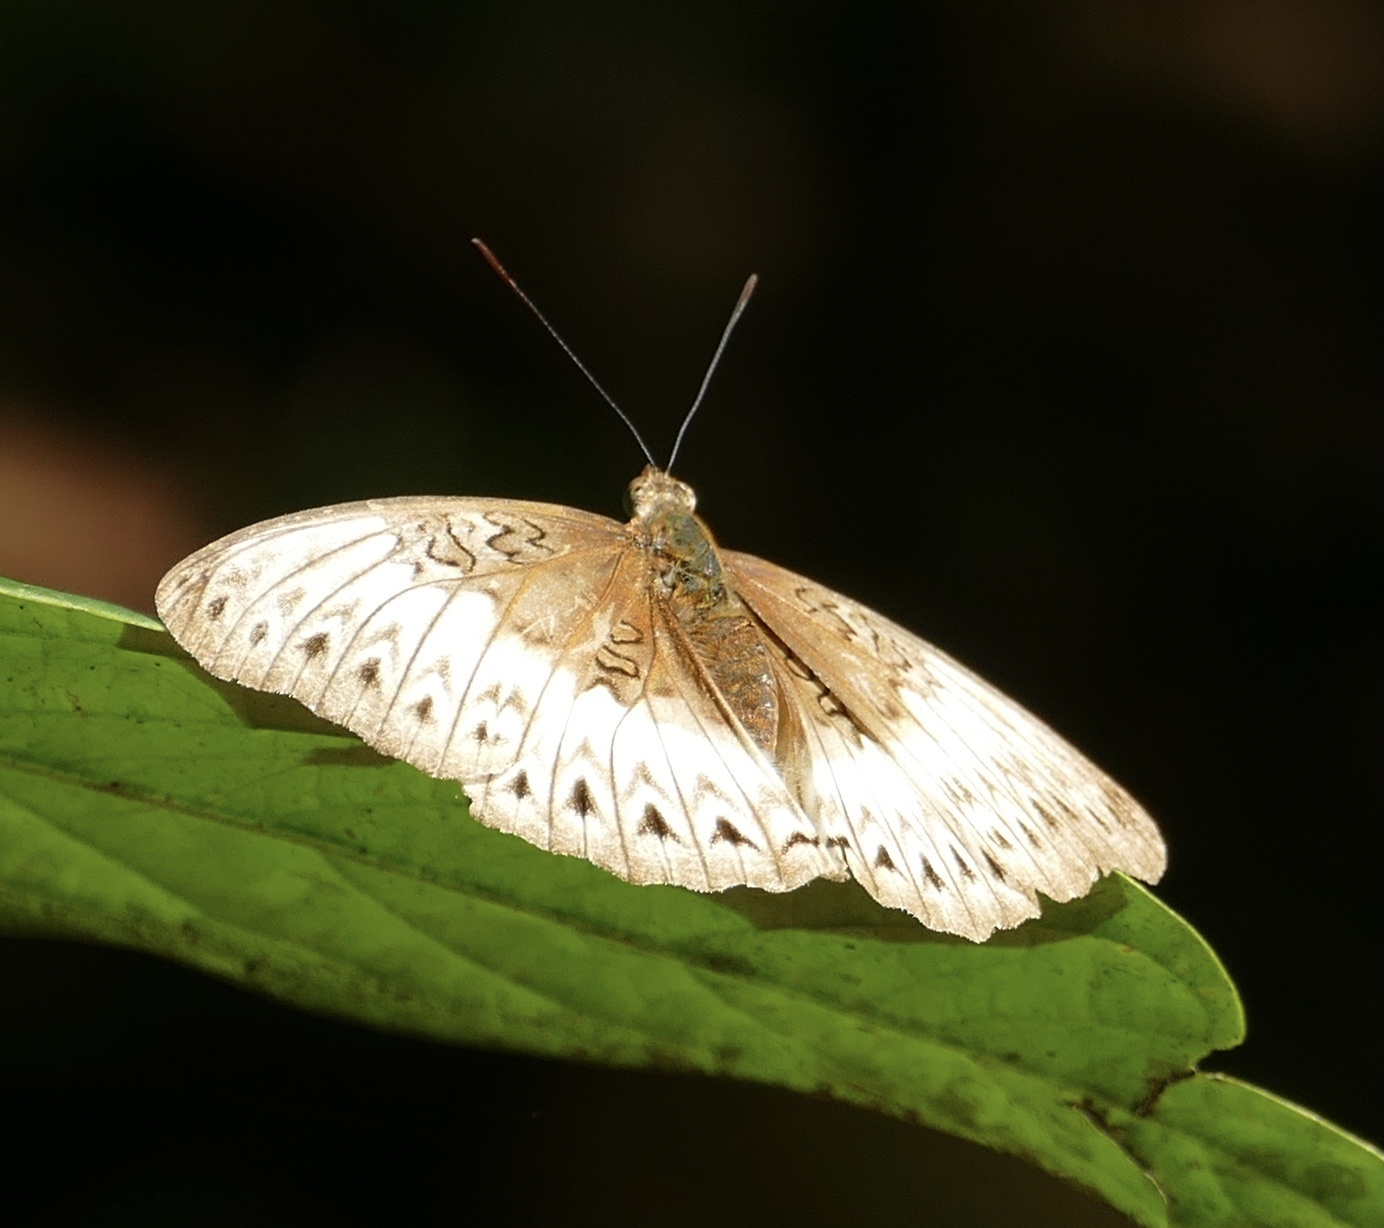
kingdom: Animalia
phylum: Arthropoda
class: Insecta
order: Lepidoptera
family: Nymphalidae
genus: Cymothoe
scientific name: Cymothoe mabillei
